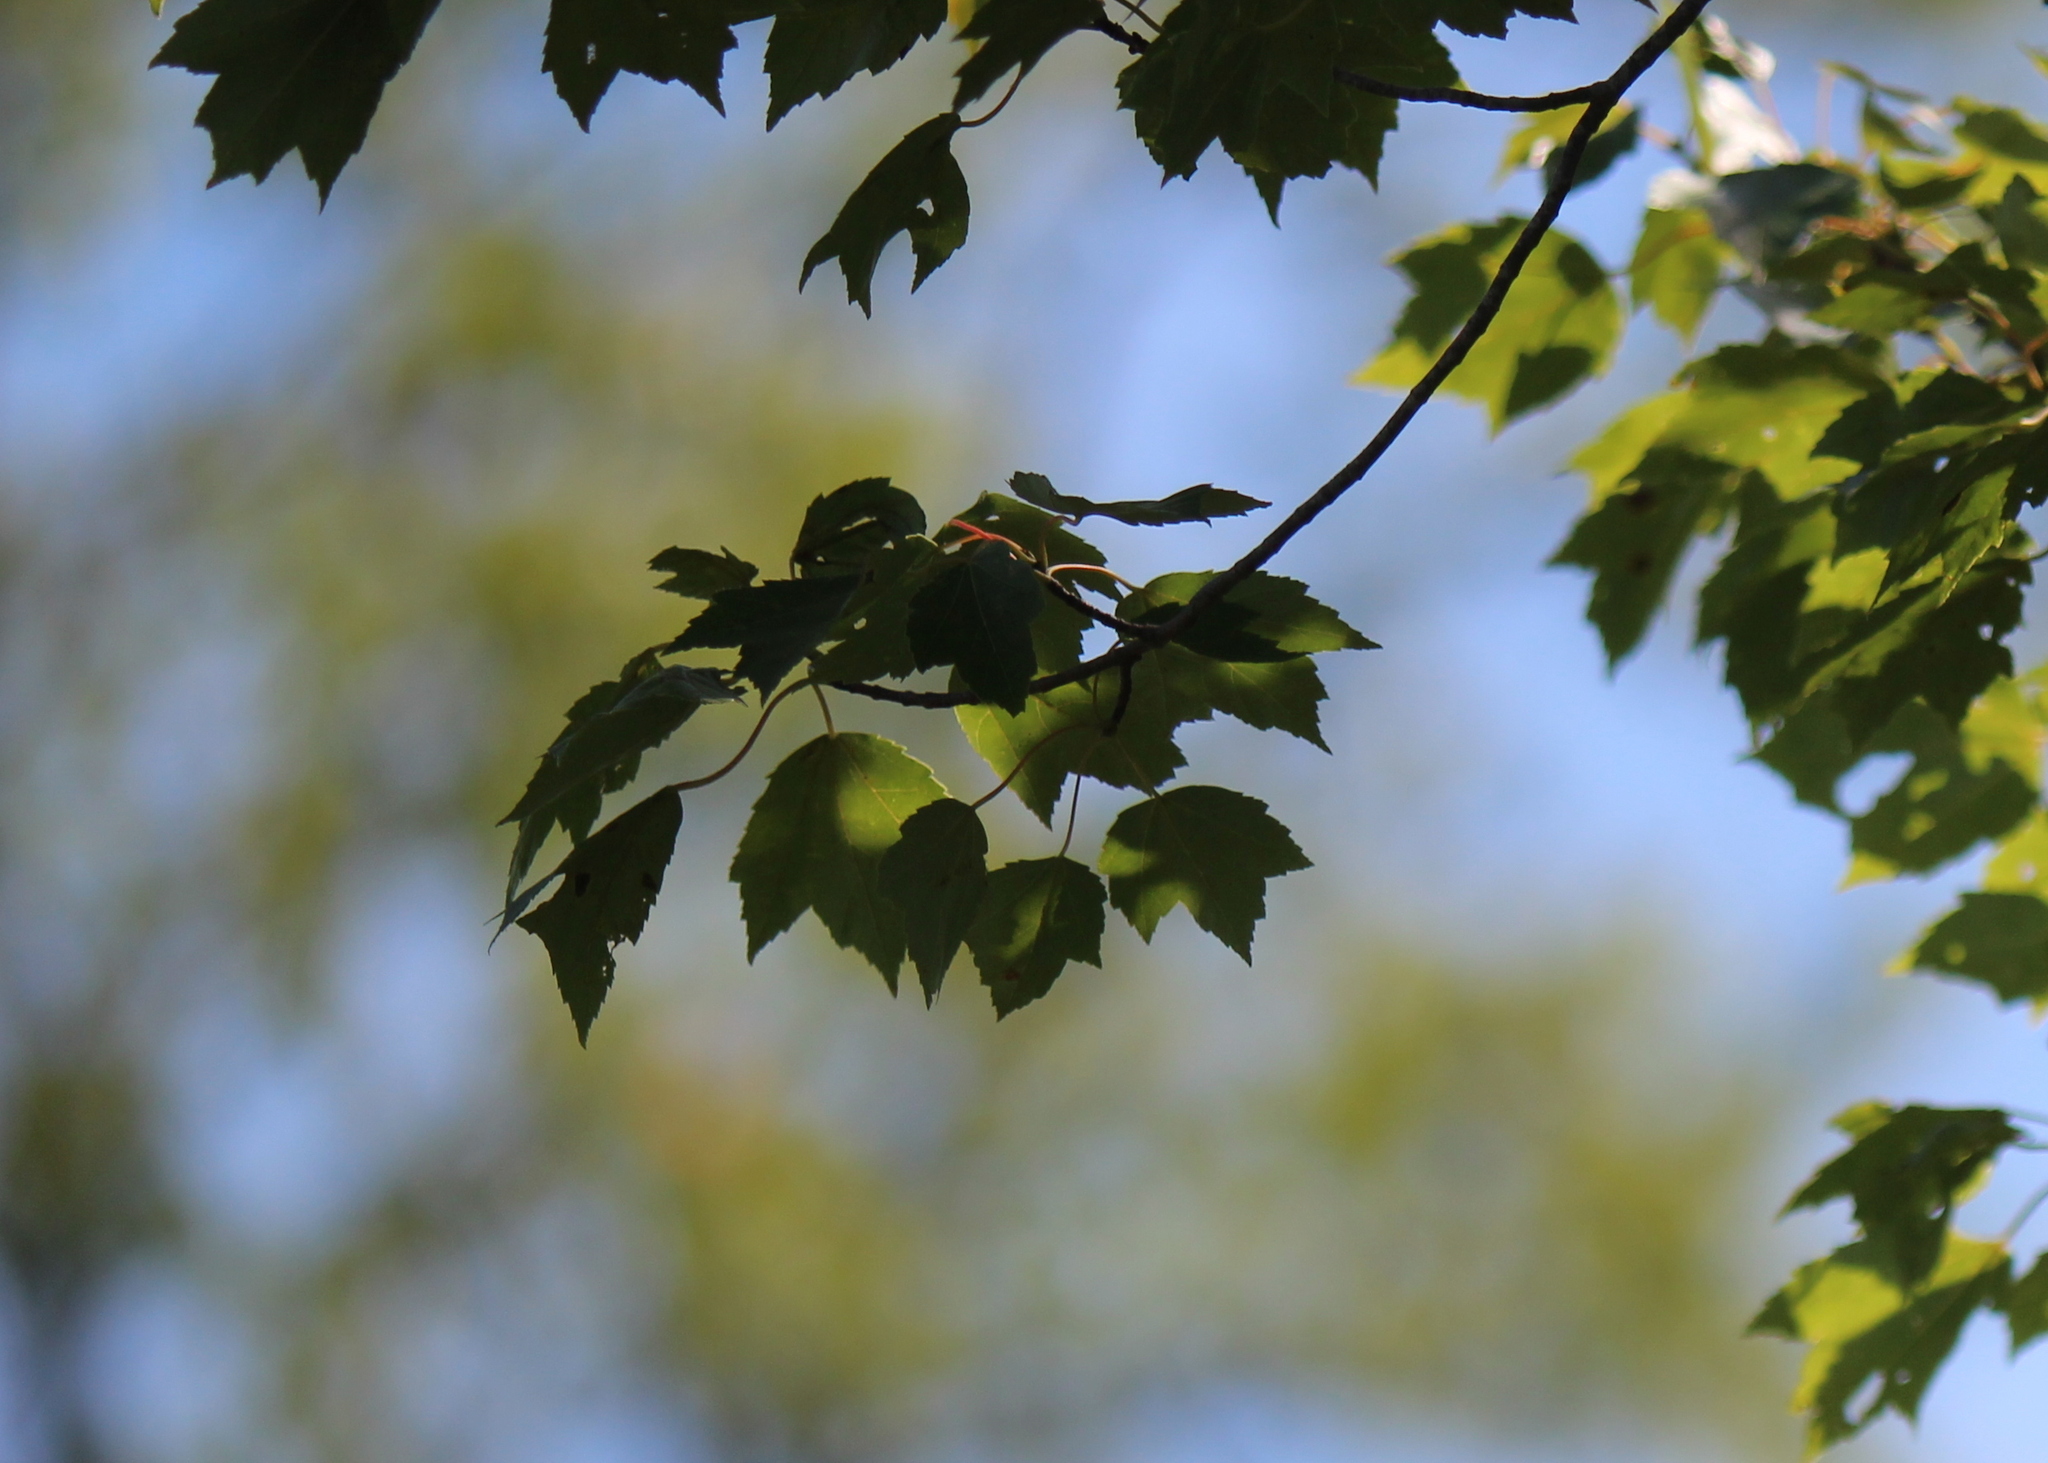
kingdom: Plantae
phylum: Tracheophyta
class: Magnoliopsida
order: Sapindales
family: Sapindaceae
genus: Acer
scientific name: Acer rubrum
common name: Red maple
